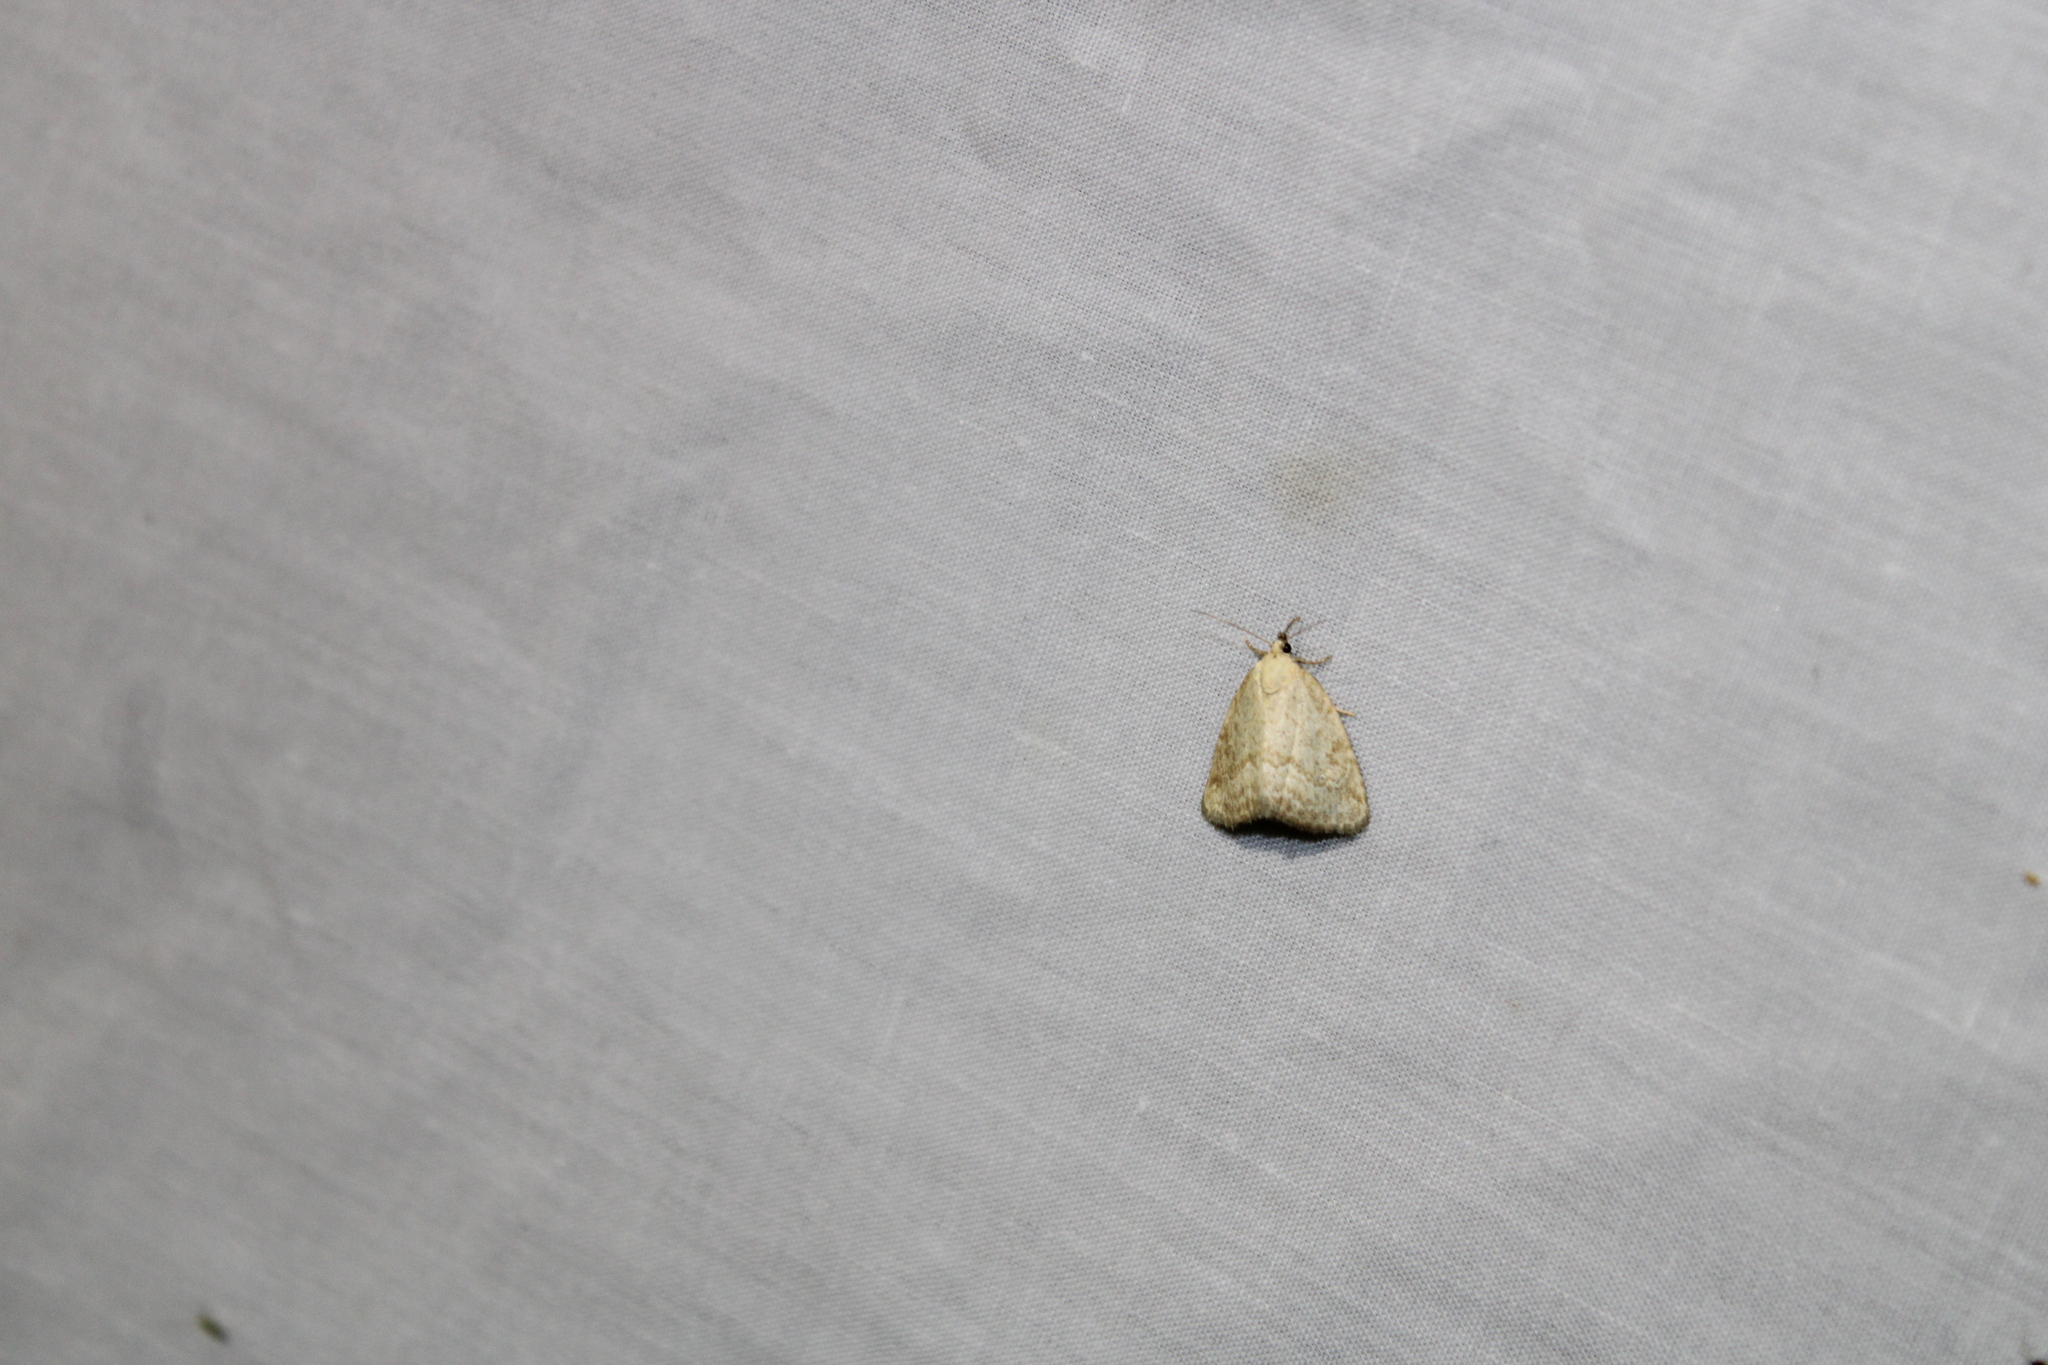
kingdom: Animalia
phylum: Arthropoda
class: Insecta
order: Lepidoptera
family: Noctuidae
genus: Protodeltote
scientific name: Protodeltote albidula
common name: Pale glyph
